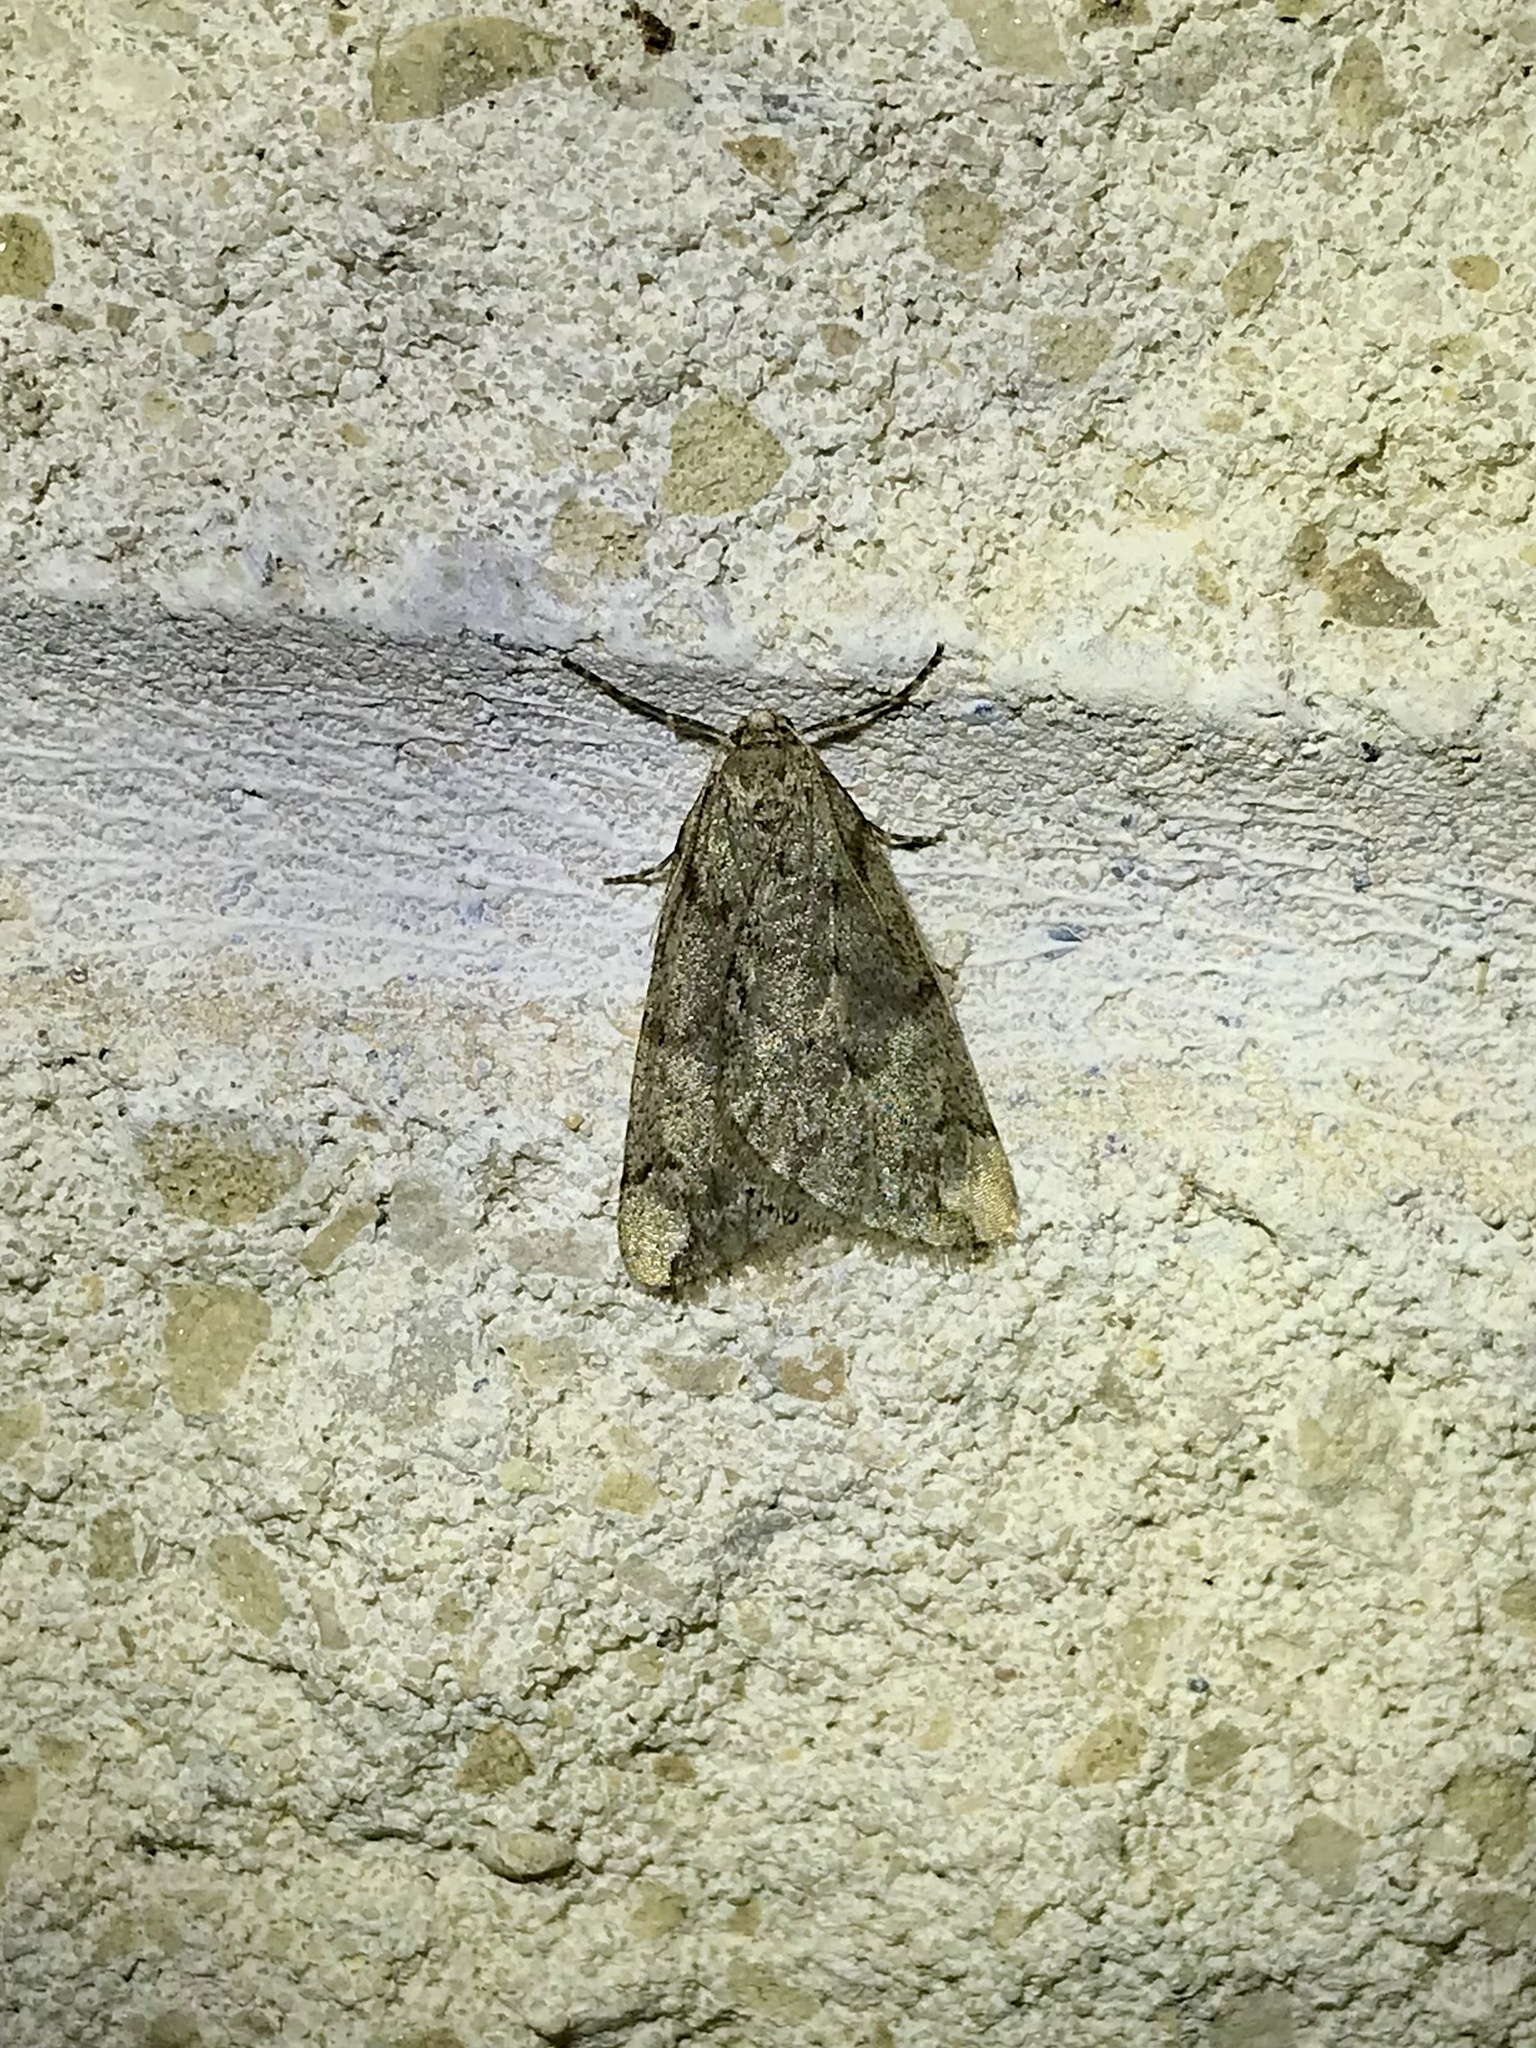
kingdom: Animalia
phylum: Arthropoda
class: Insecta
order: Lepidoptera
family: Geometridae
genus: Paleacrita
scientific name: Paleacrita vernata
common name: Spring cankerworm
